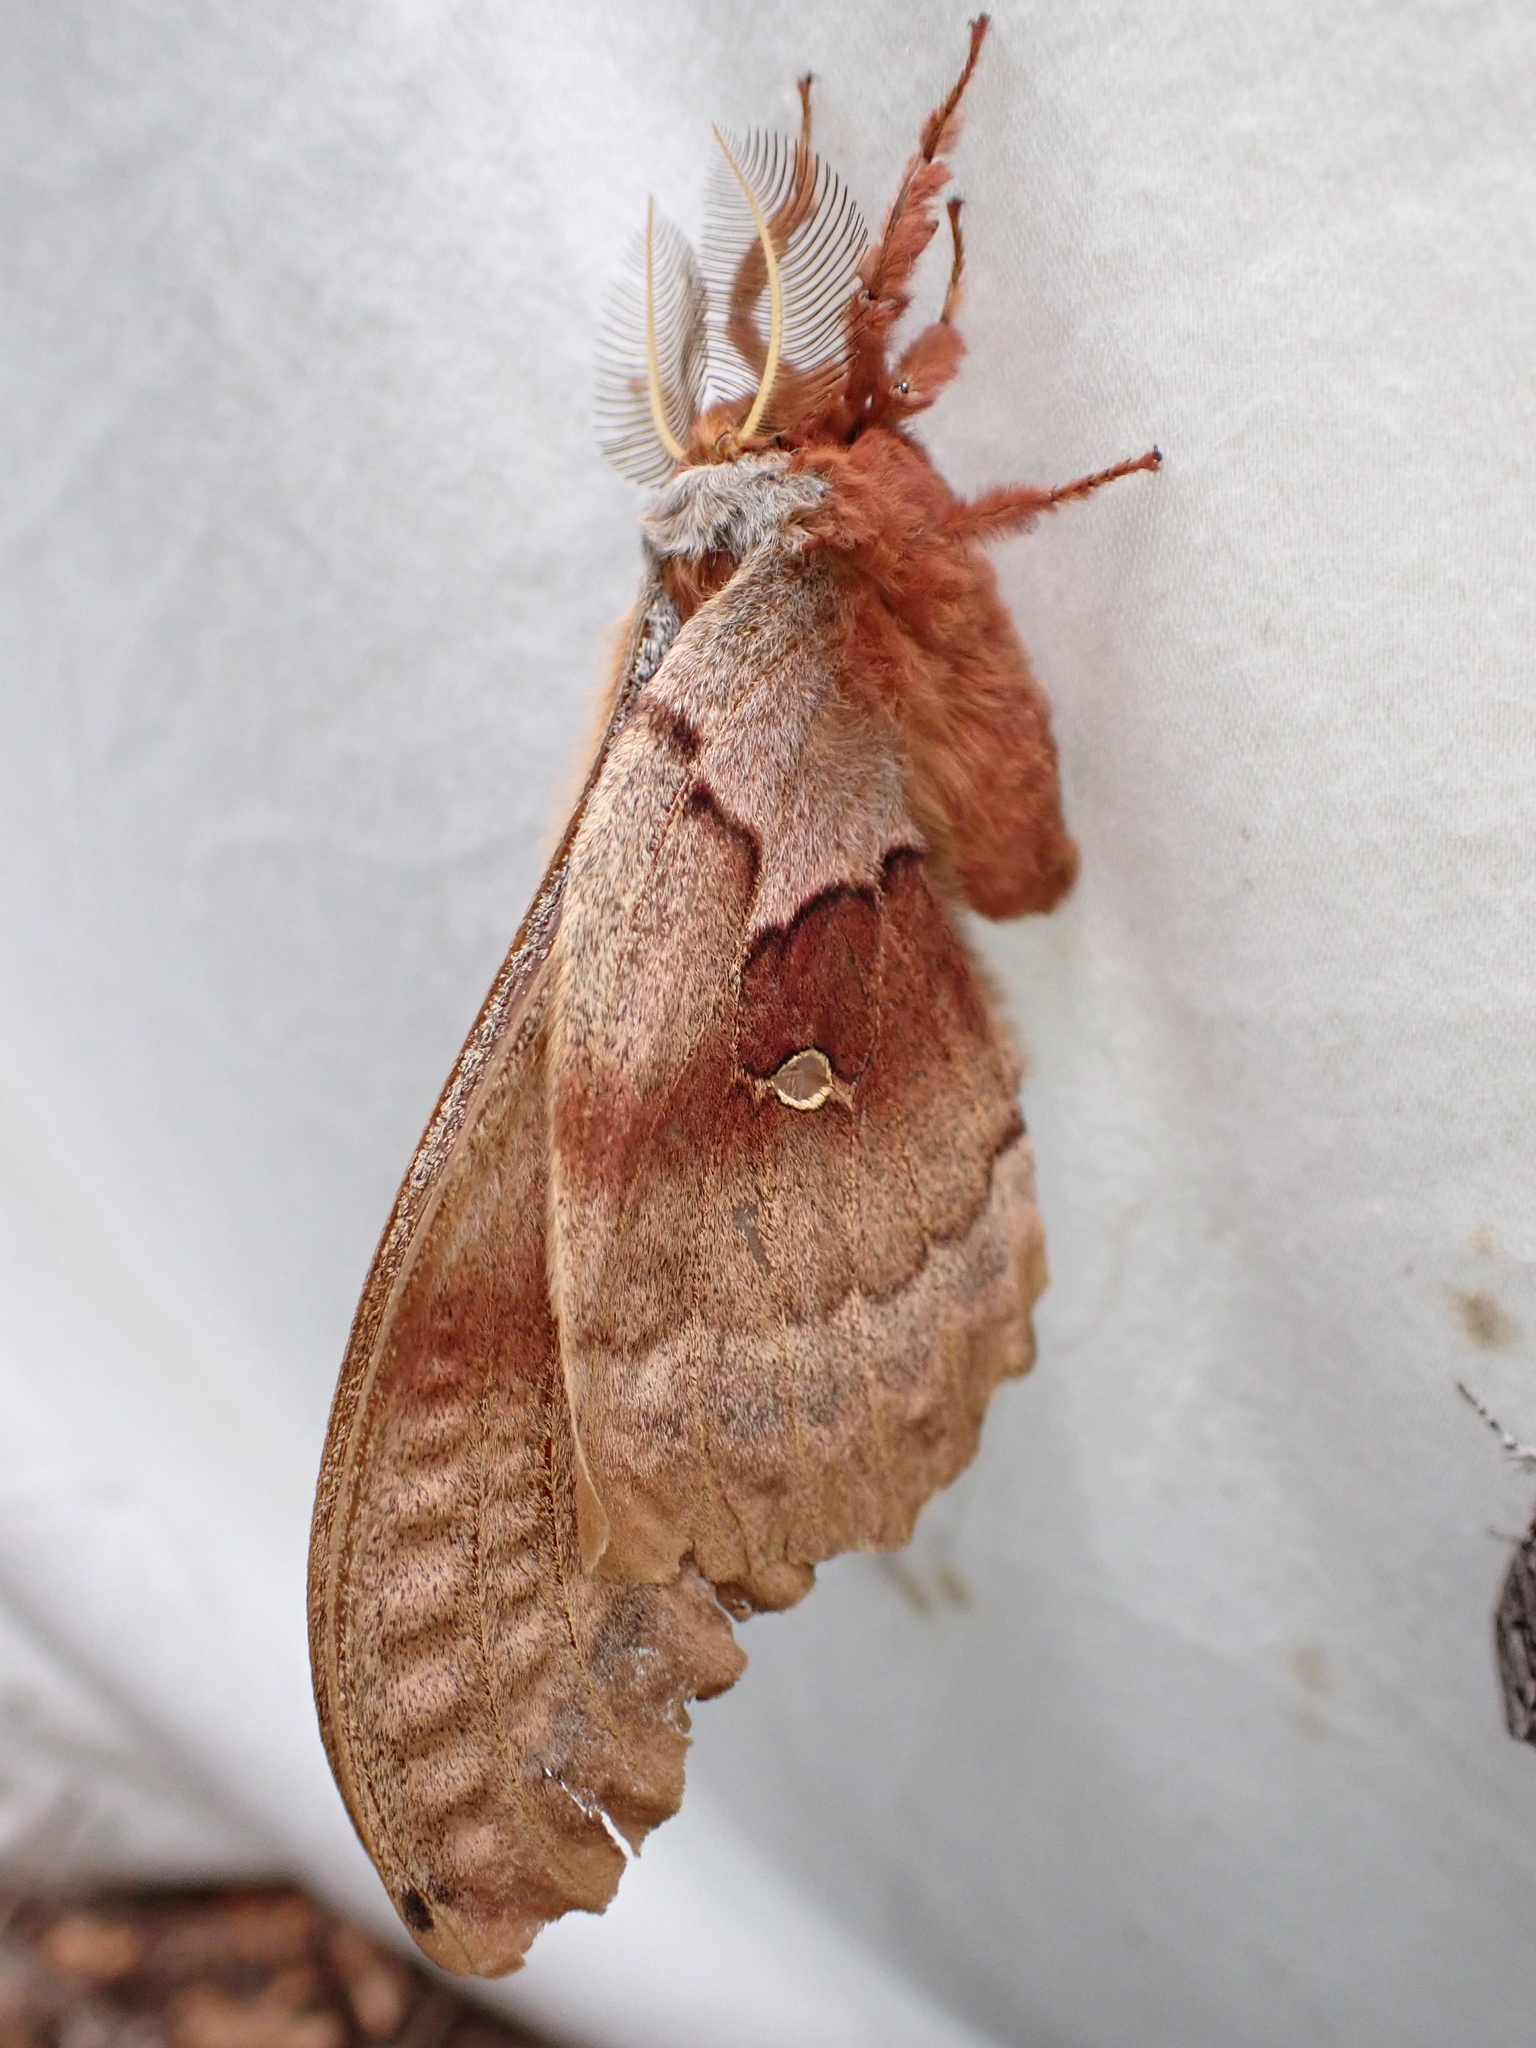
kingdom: Animalia
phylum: Arthropoda
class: Insecta
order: Lepidoptera
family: Saturniidae
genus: Antheraea
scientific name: Antheraea polyphemus
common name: Polyphemus moth
